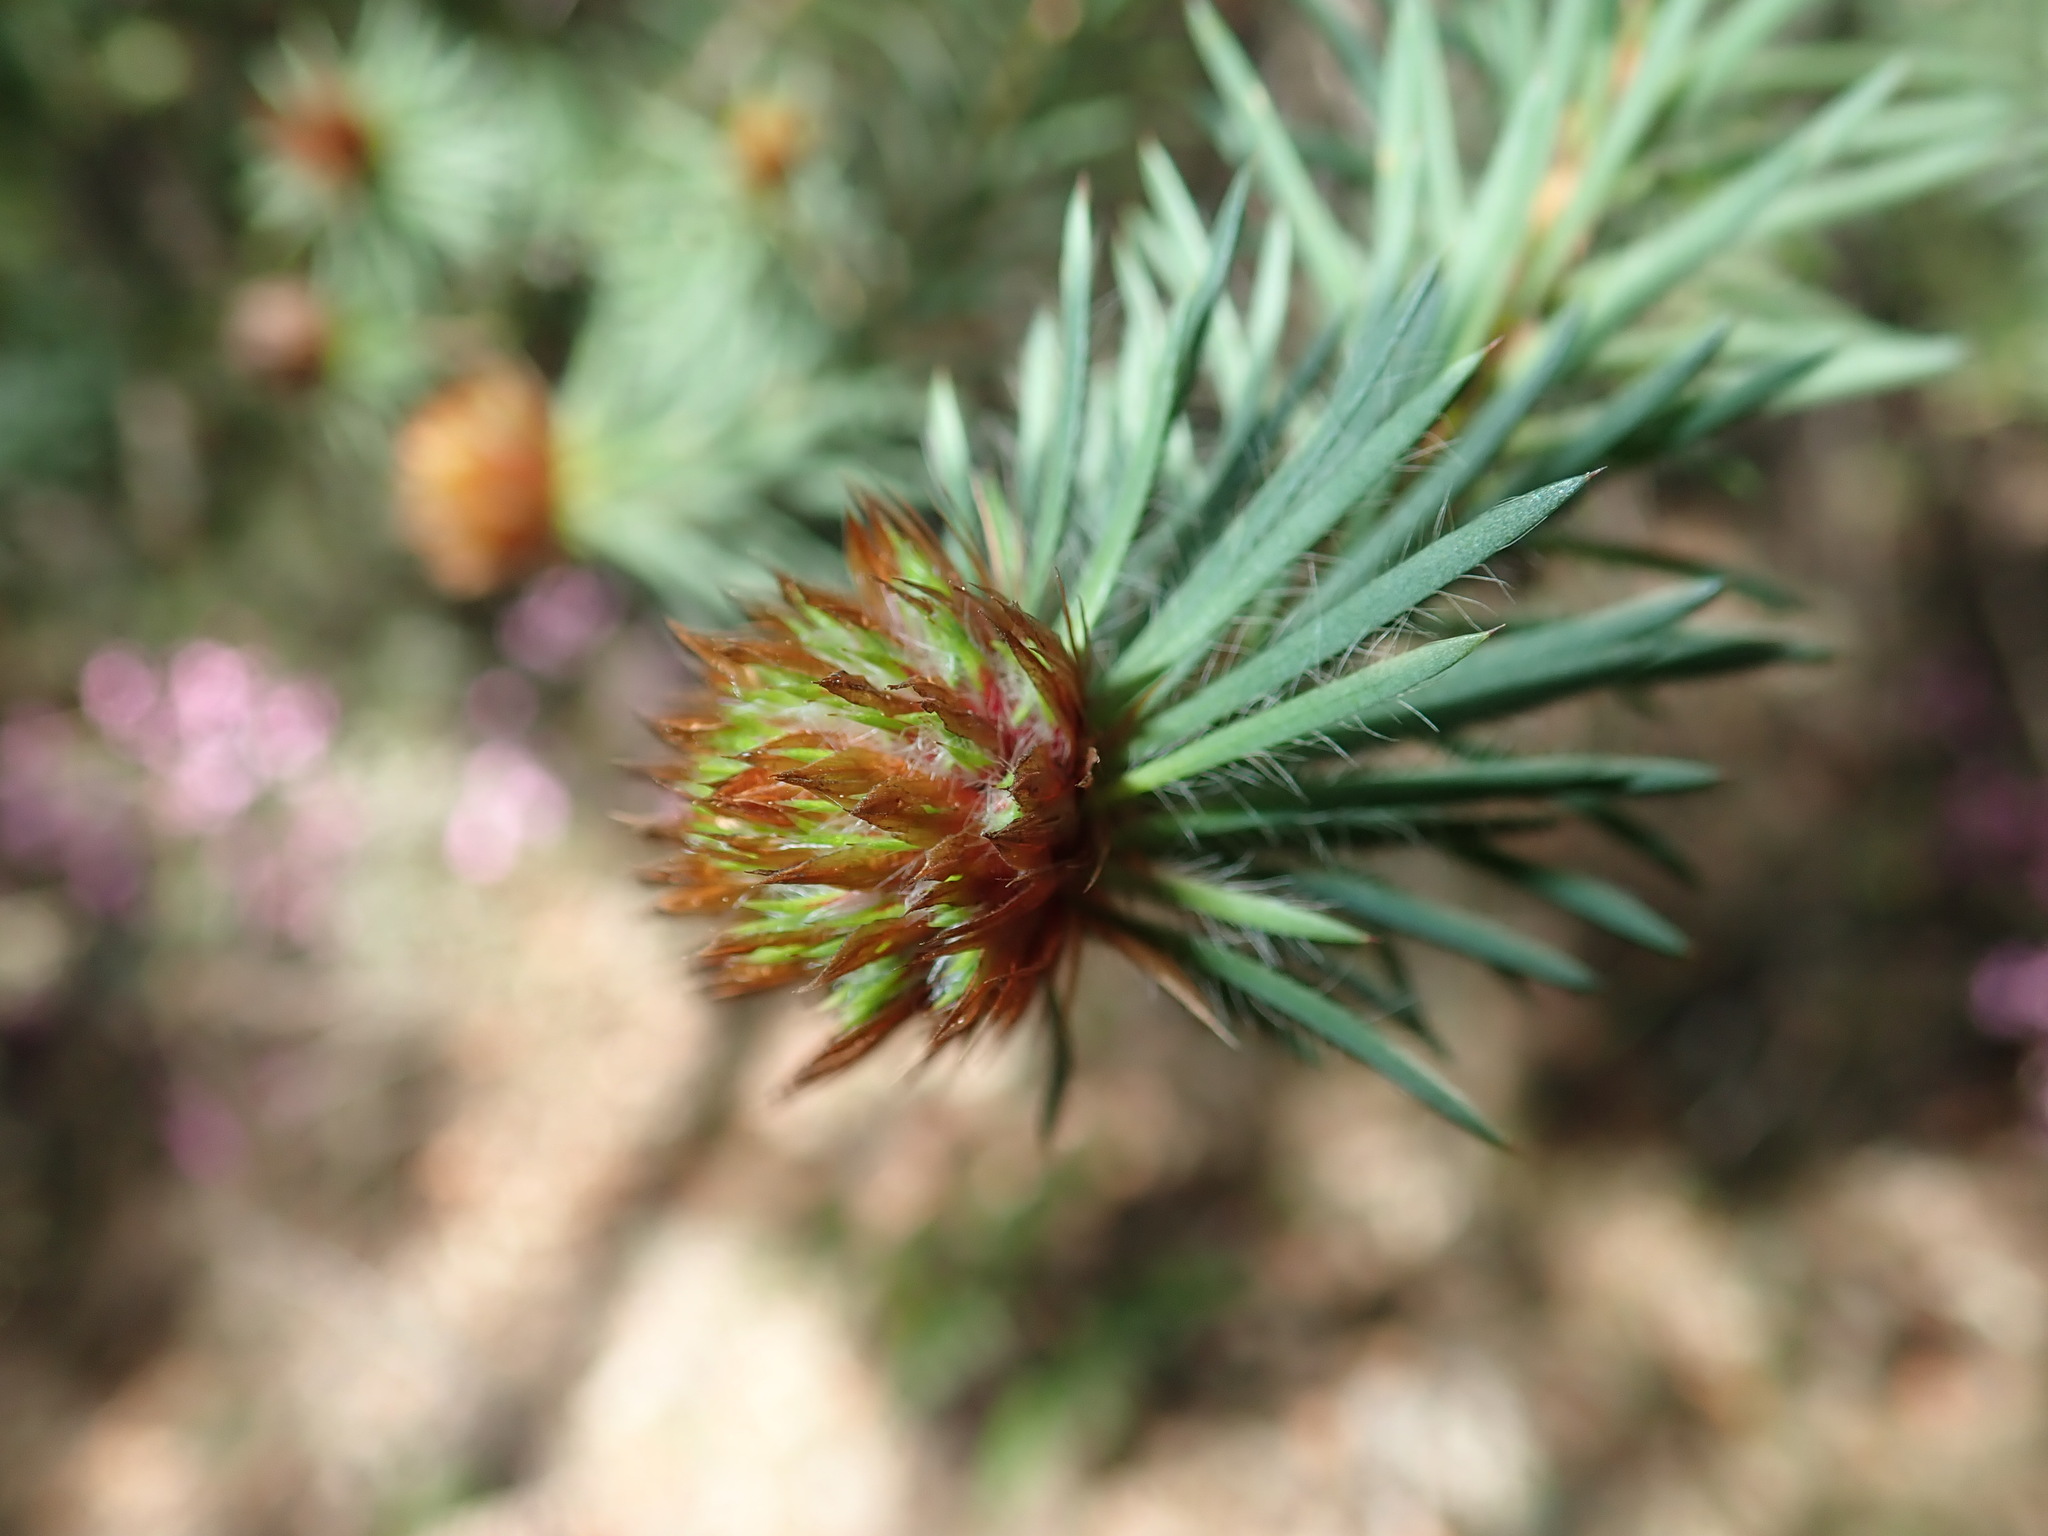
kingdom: Plantae
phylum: Tracheophyta
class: Magnoliopsida
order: Fabales
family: Fabaceae
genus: Pultenaea
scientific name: Pultenaea stipularis
